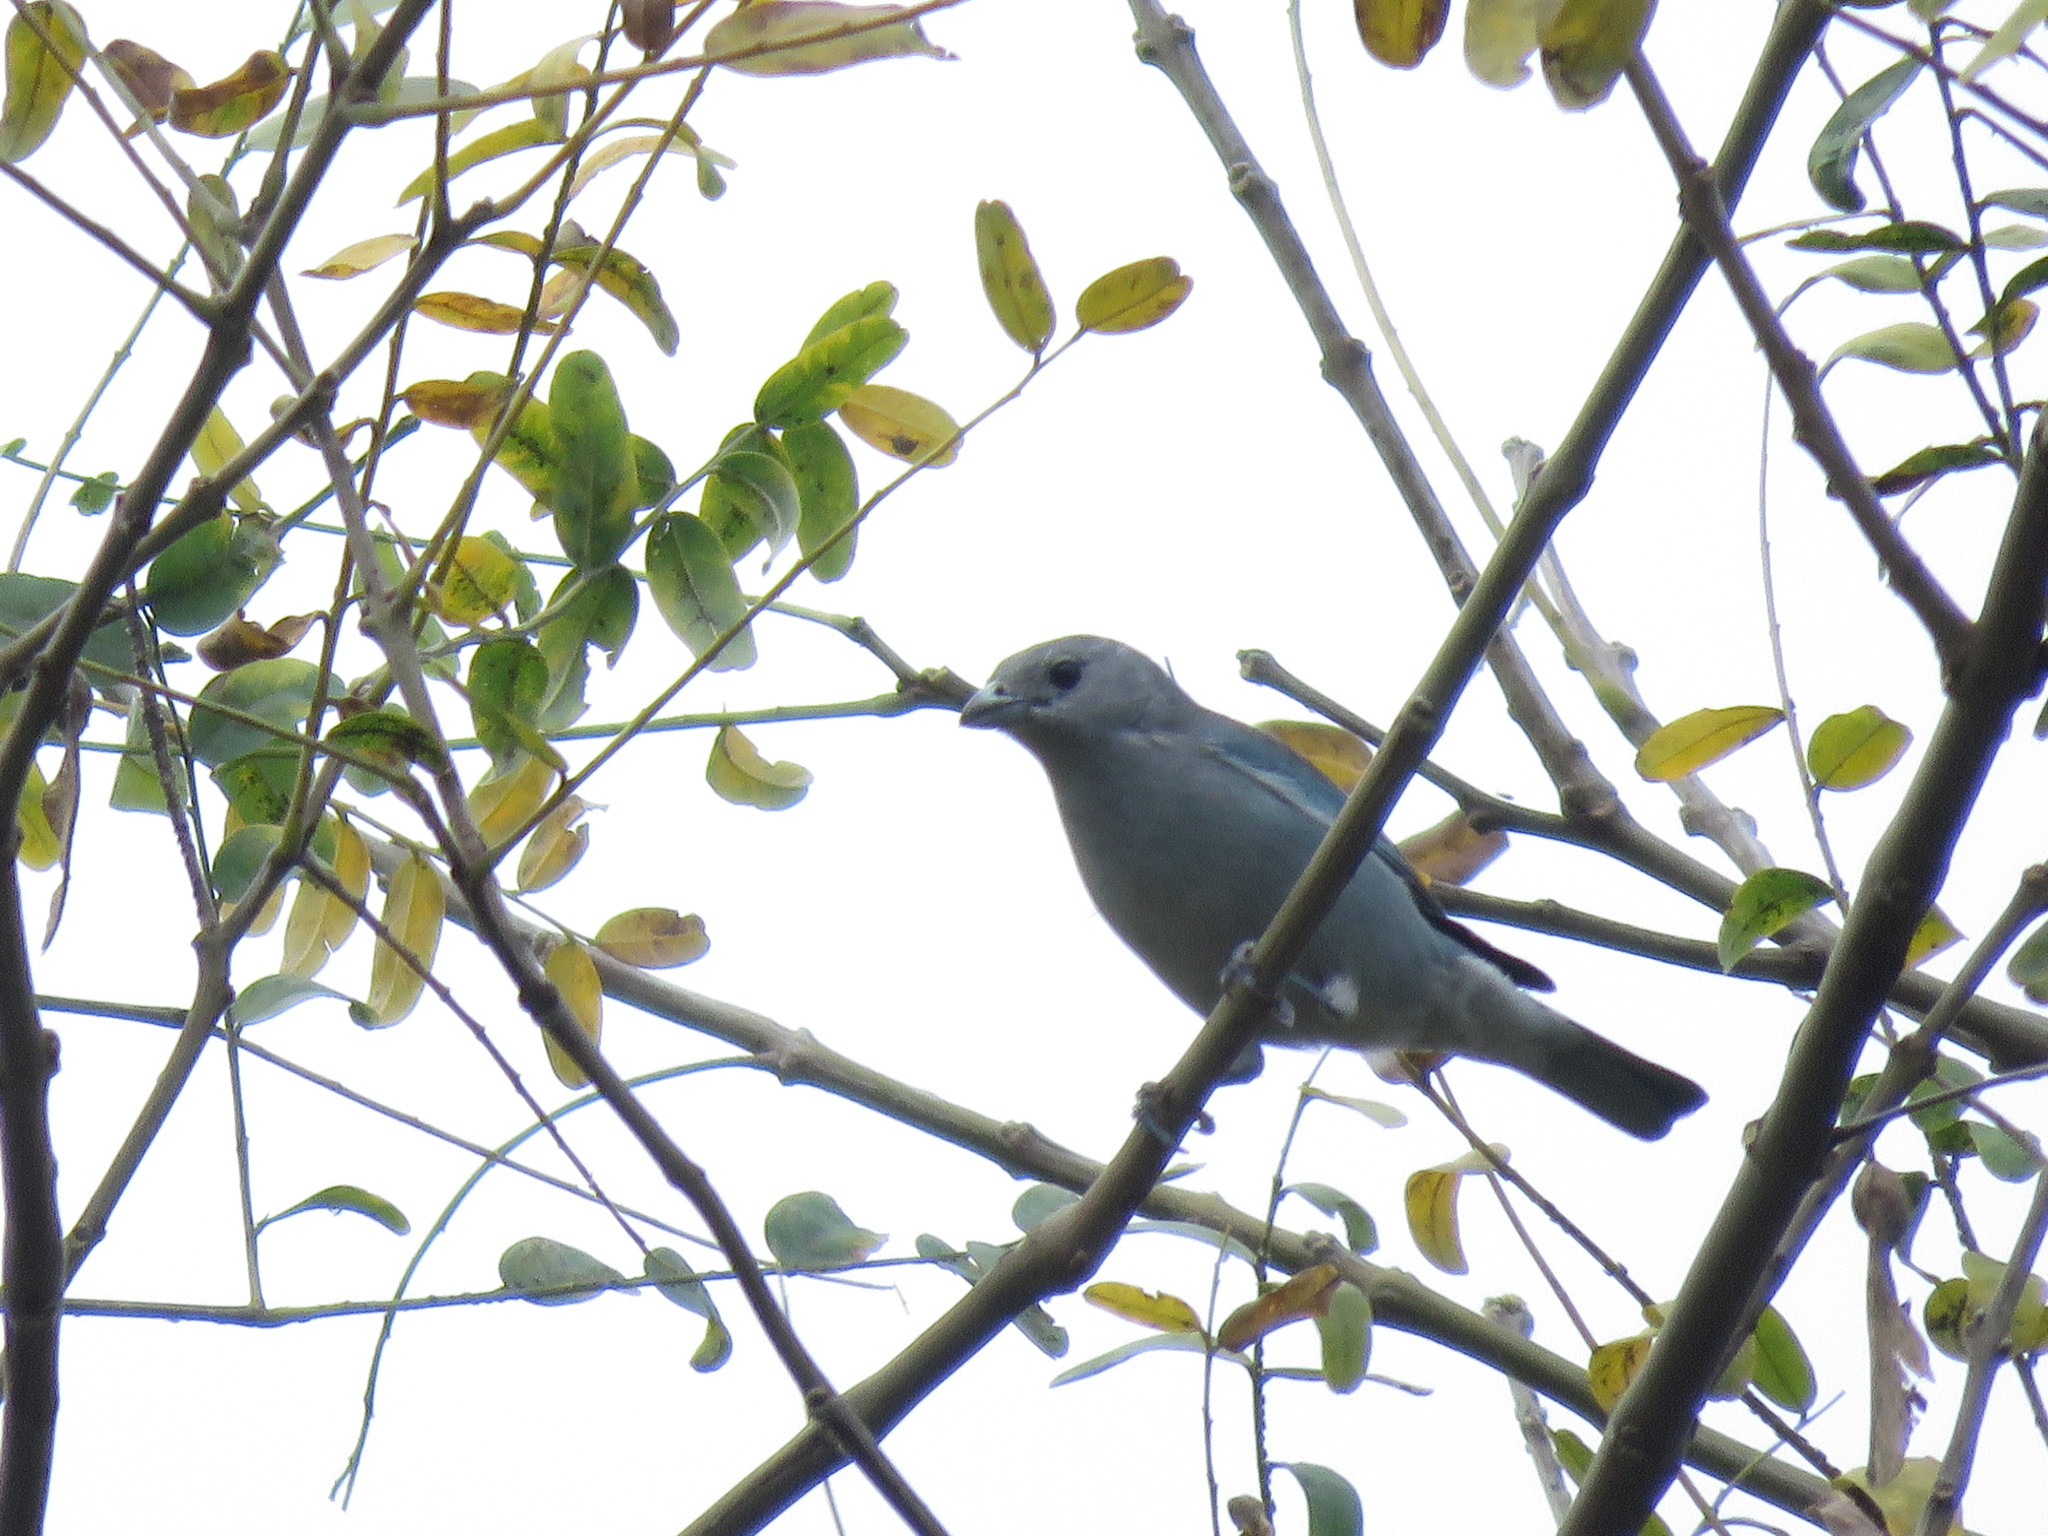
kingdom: Animalia
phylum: Chordata
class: Aves
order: Passeriformes
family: Thraupidae
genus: Thraupis
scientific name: Thraupis sayaca
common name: Sayaca tanager
